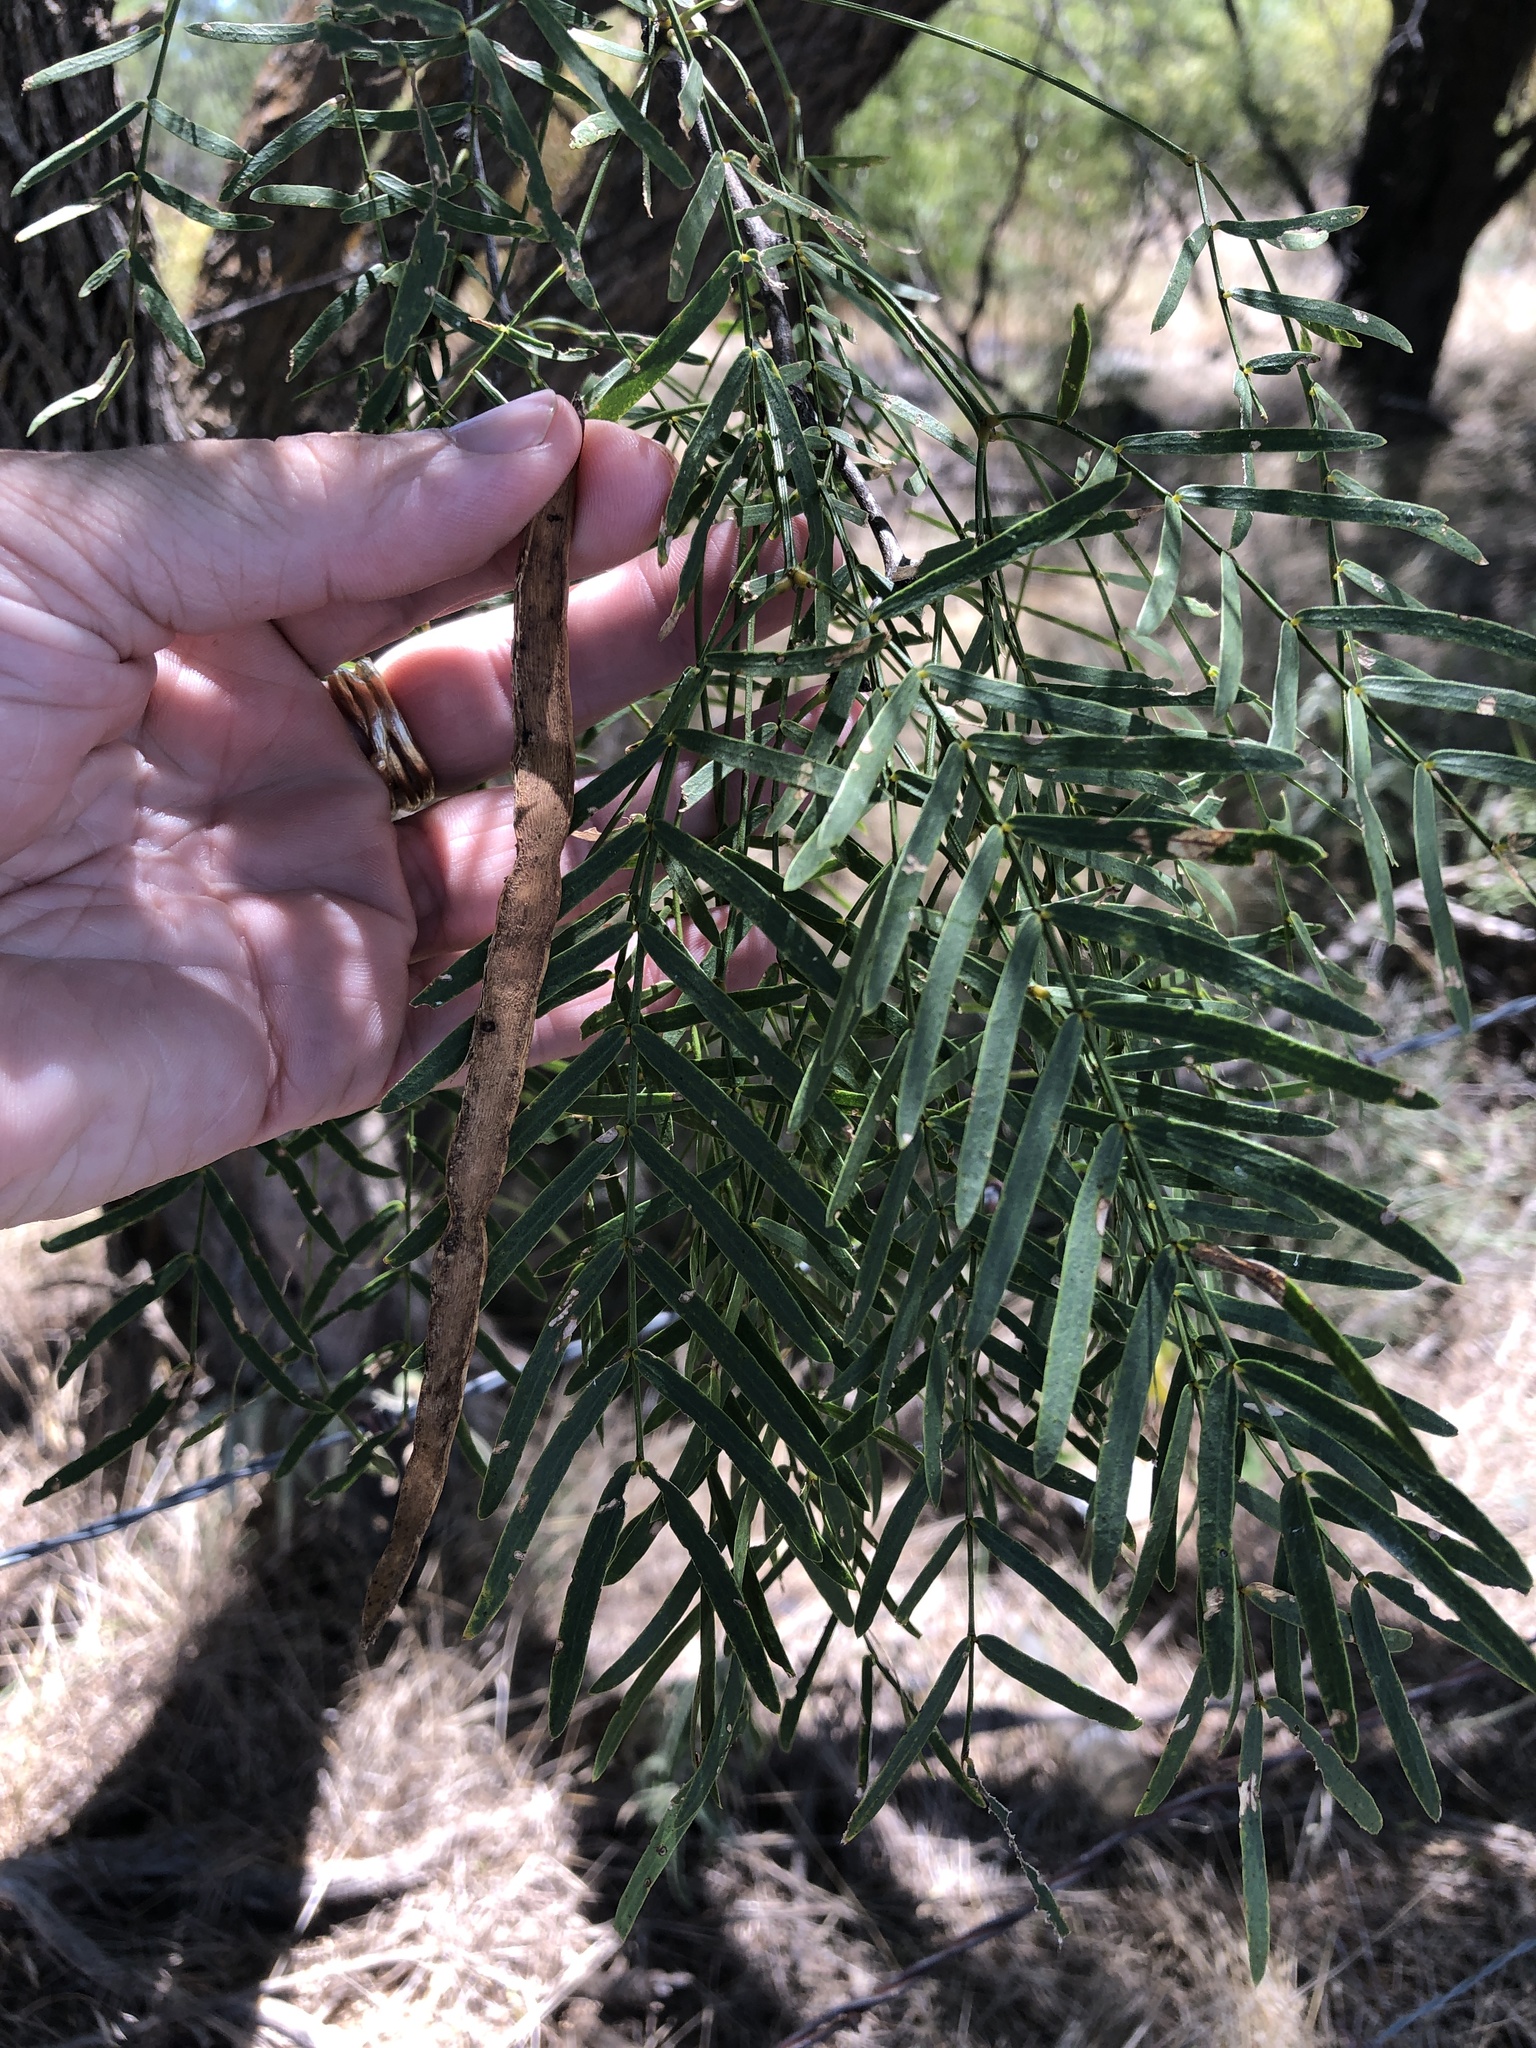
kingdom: Plantae
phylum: Tracheophyta
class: Magnoliopsida
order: Fabales
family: Fabaceae
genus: Prosopis
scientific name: Prosopis glandulosa
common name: Honey mesquite
